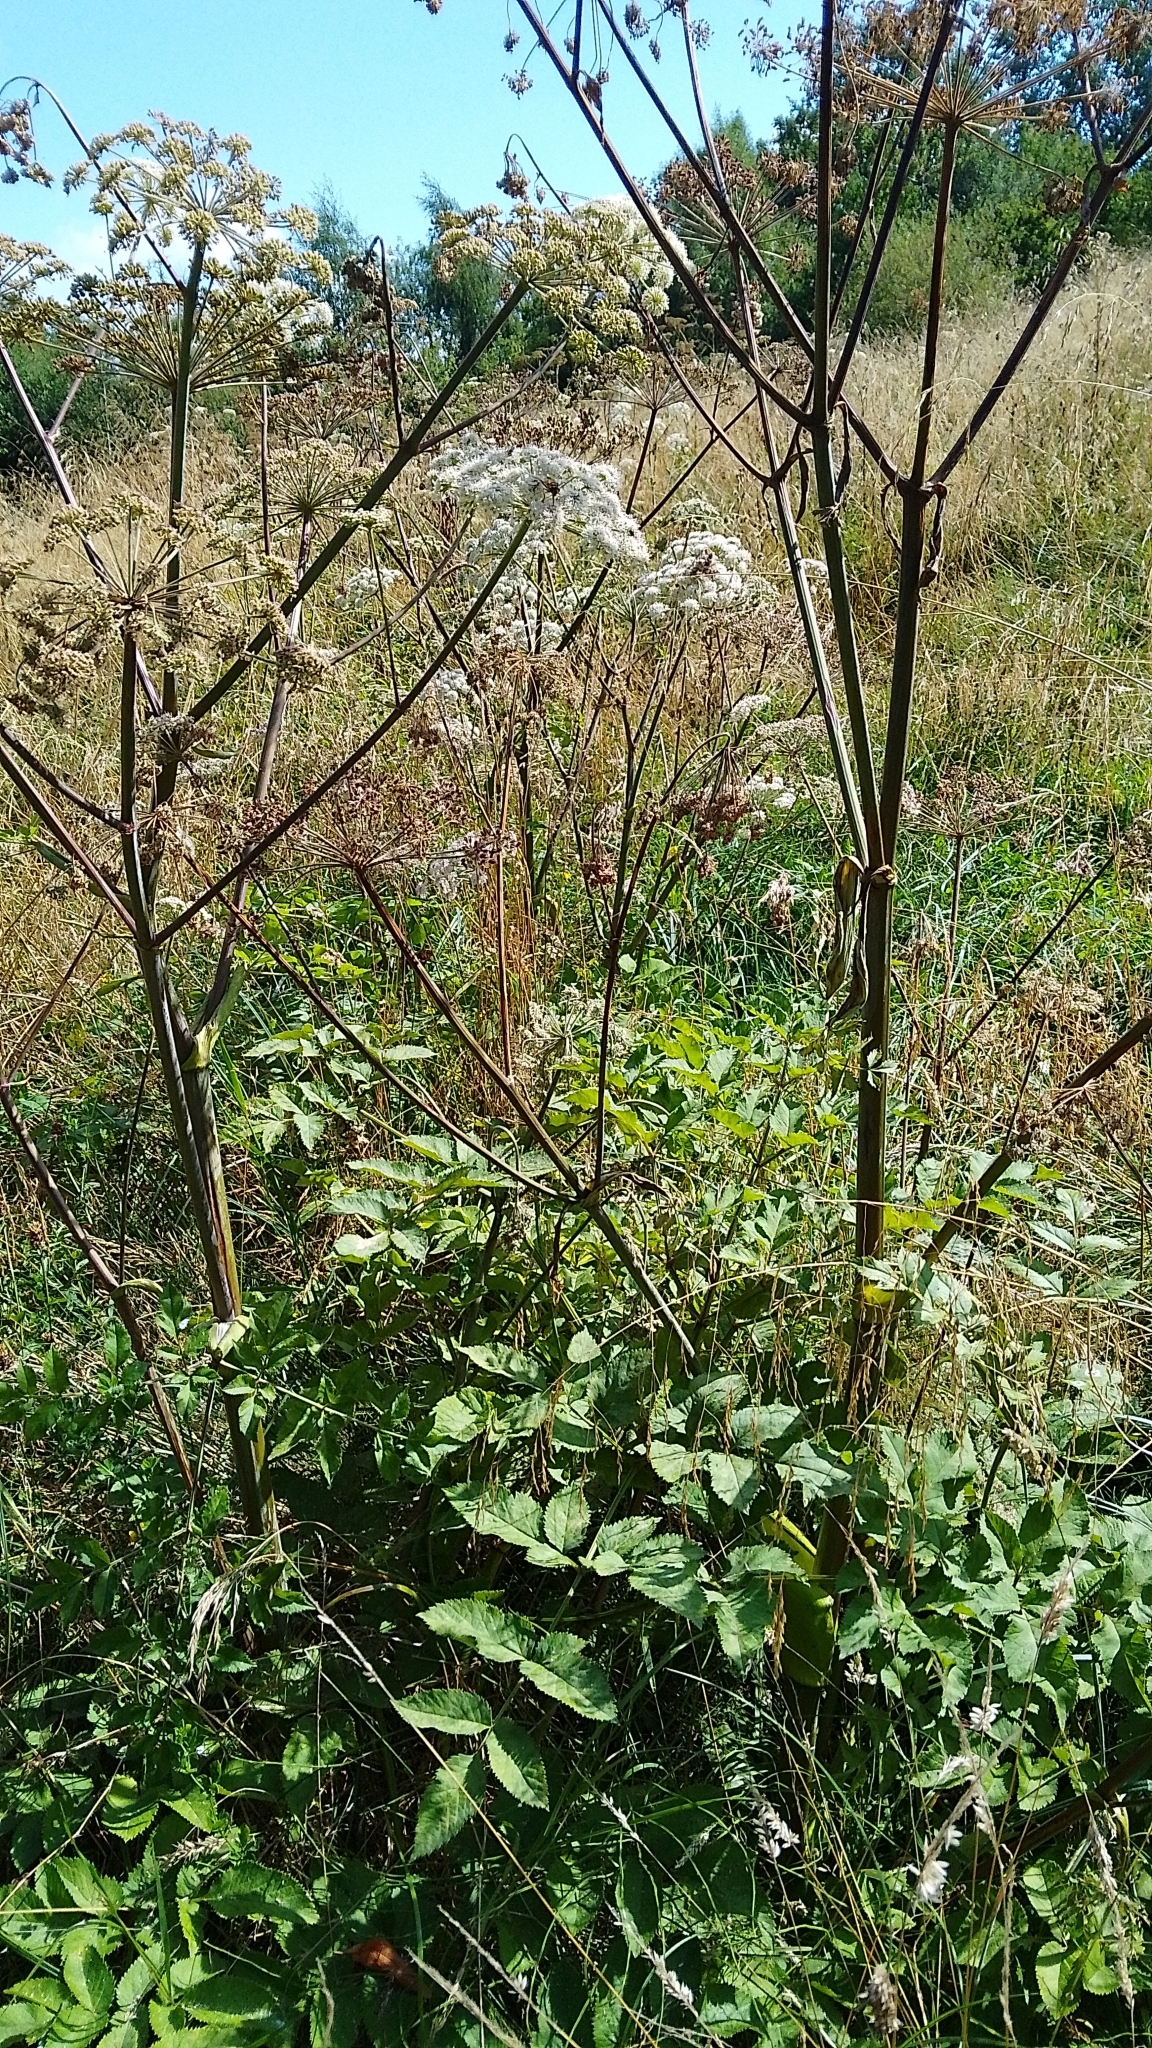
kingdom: Plantae
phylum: Tracheophyta
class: Magnoliopsida
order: Apiales
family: Apiaceae
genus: Angelica
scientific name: Angelica sylvestris
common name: Wild angelica
